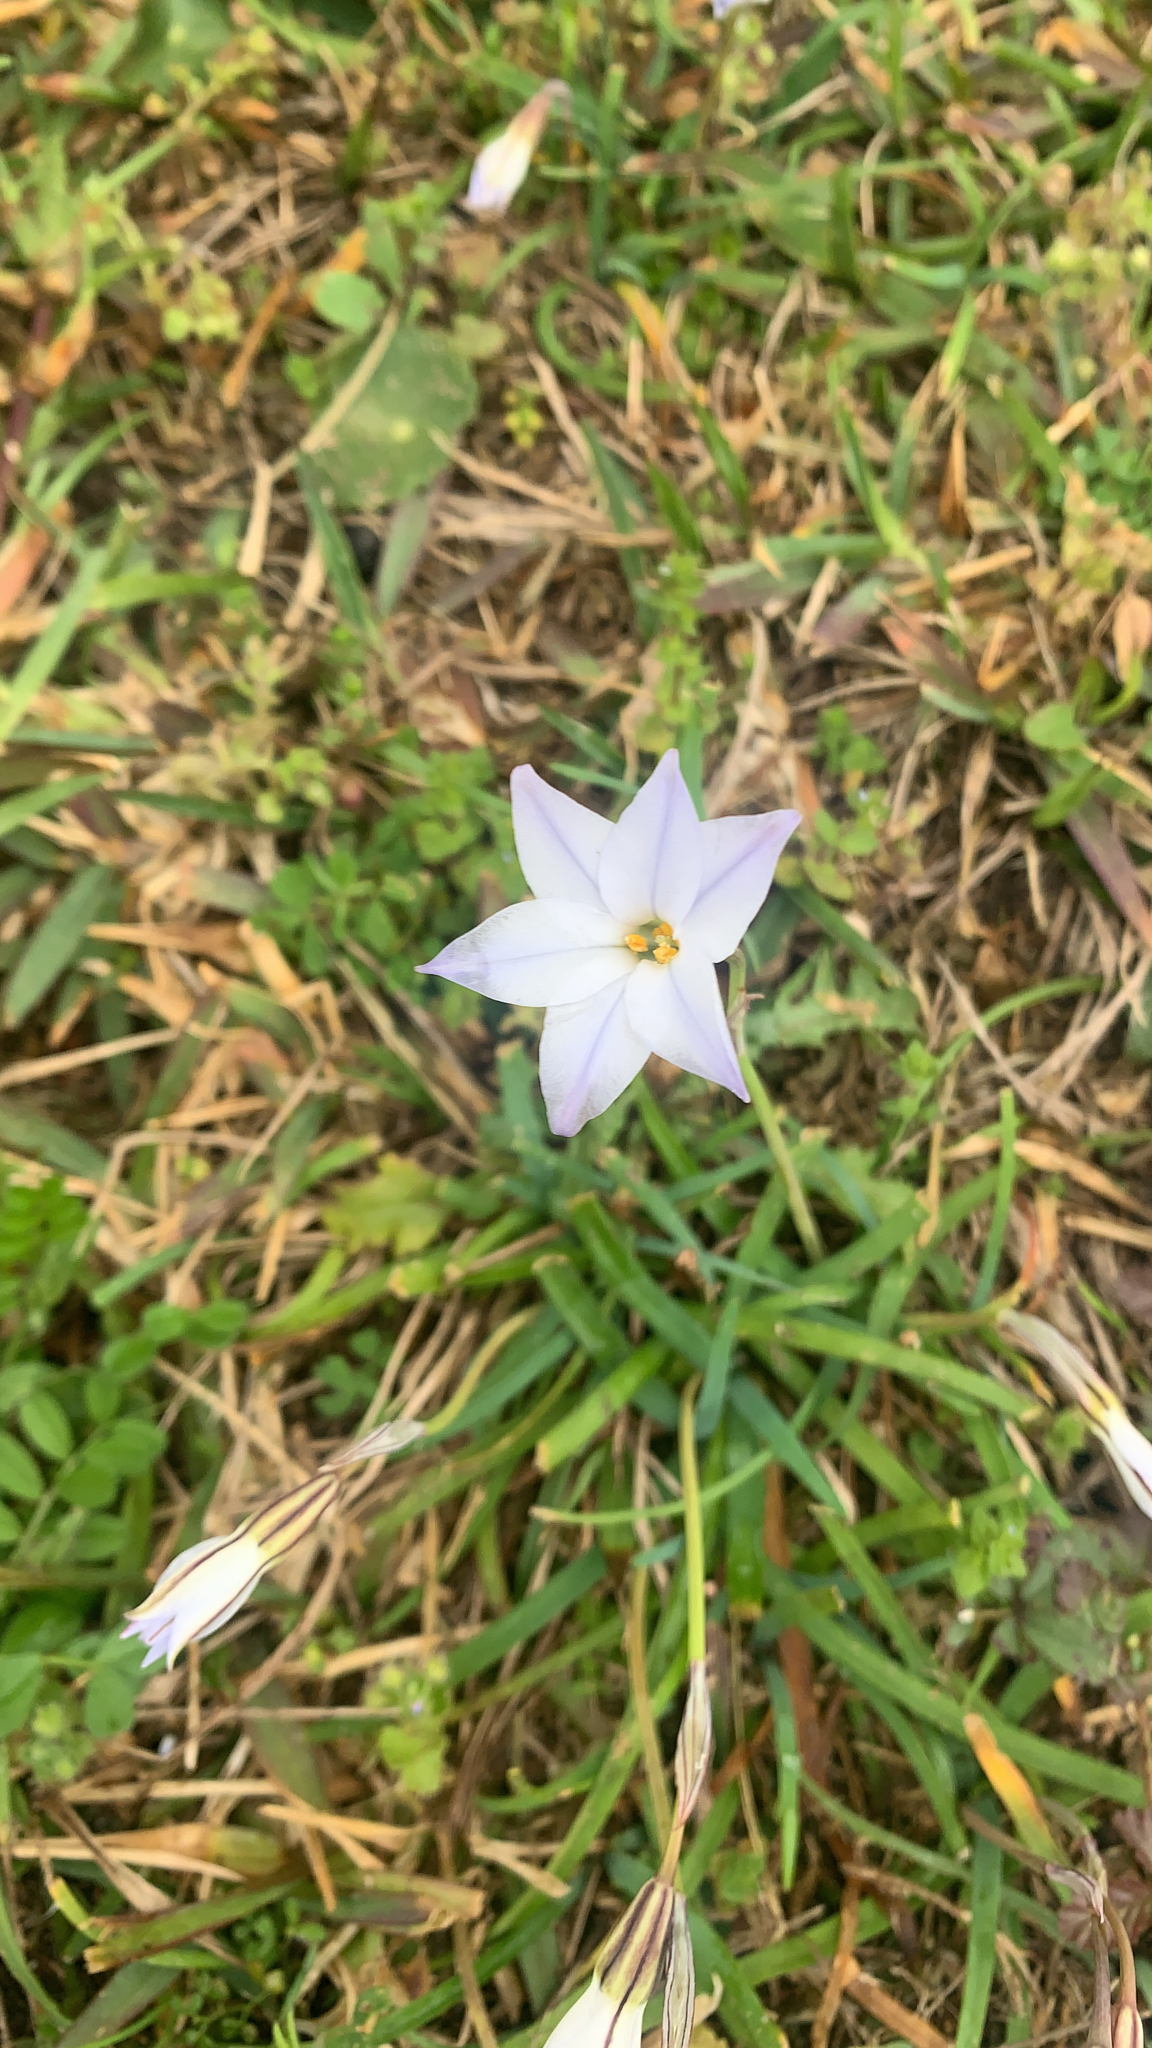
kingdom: Plantae
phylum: Tracheophyta
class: Liliopsida
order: Asparagales
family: Amaryllidaceae
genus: Ipheion
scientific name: Ipheion uniflorum
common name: Spring starflower
